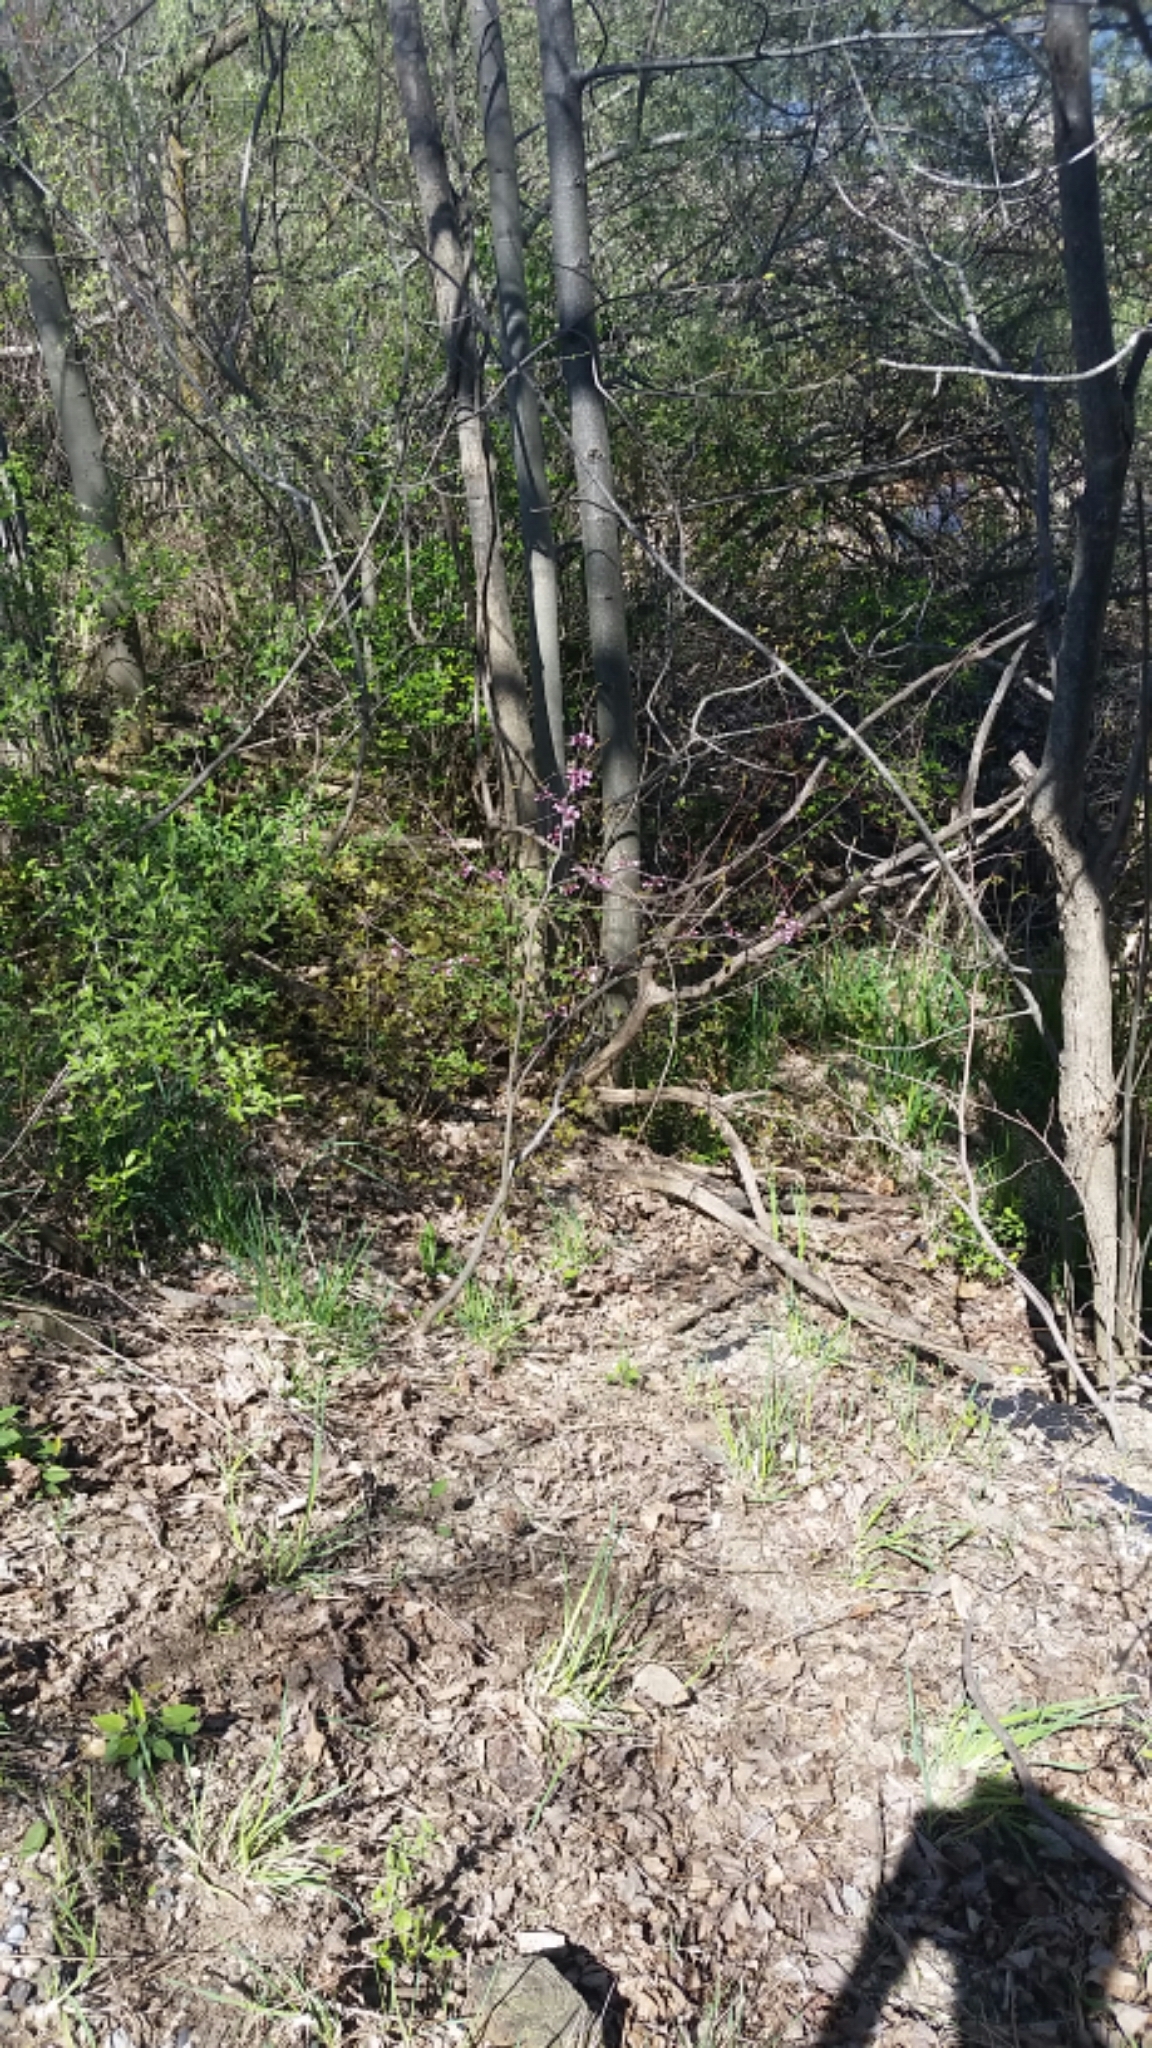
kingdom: Plantae
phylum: Tracheophyta
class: Magnoliopsida
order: Fabales
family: Fabaceae
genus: Cercis
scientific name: Cercis canadensis
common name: Eastern redbud
